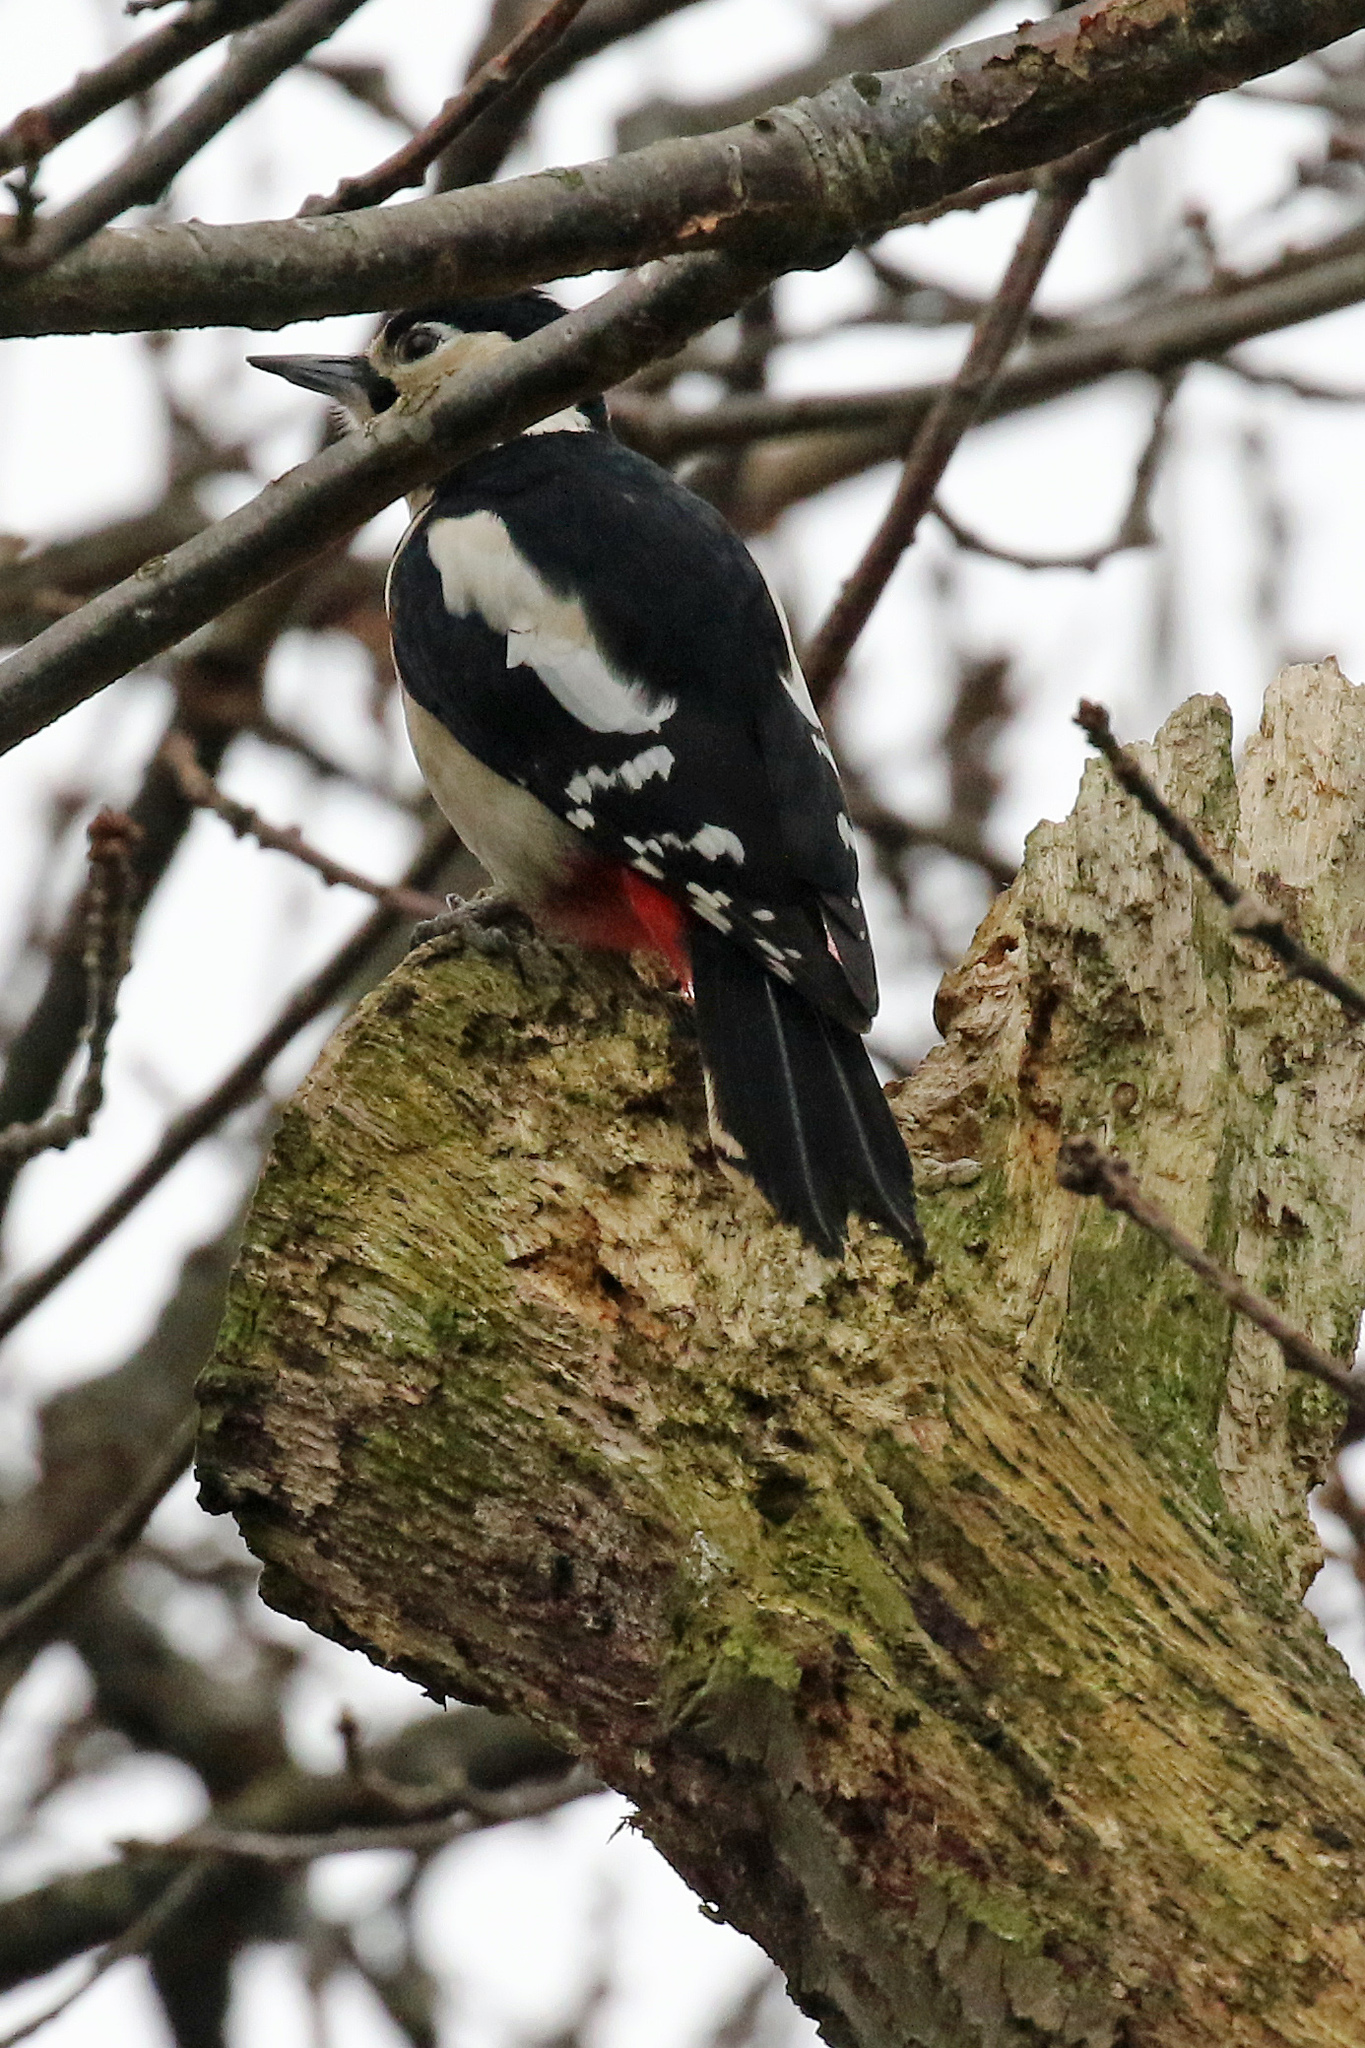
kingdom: Animalia
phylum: Chordata
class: Aves
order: Piciformes
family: Picidae
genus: Dendrocopos
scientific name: Dendrocopos major
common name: Great spotted woodpecker
